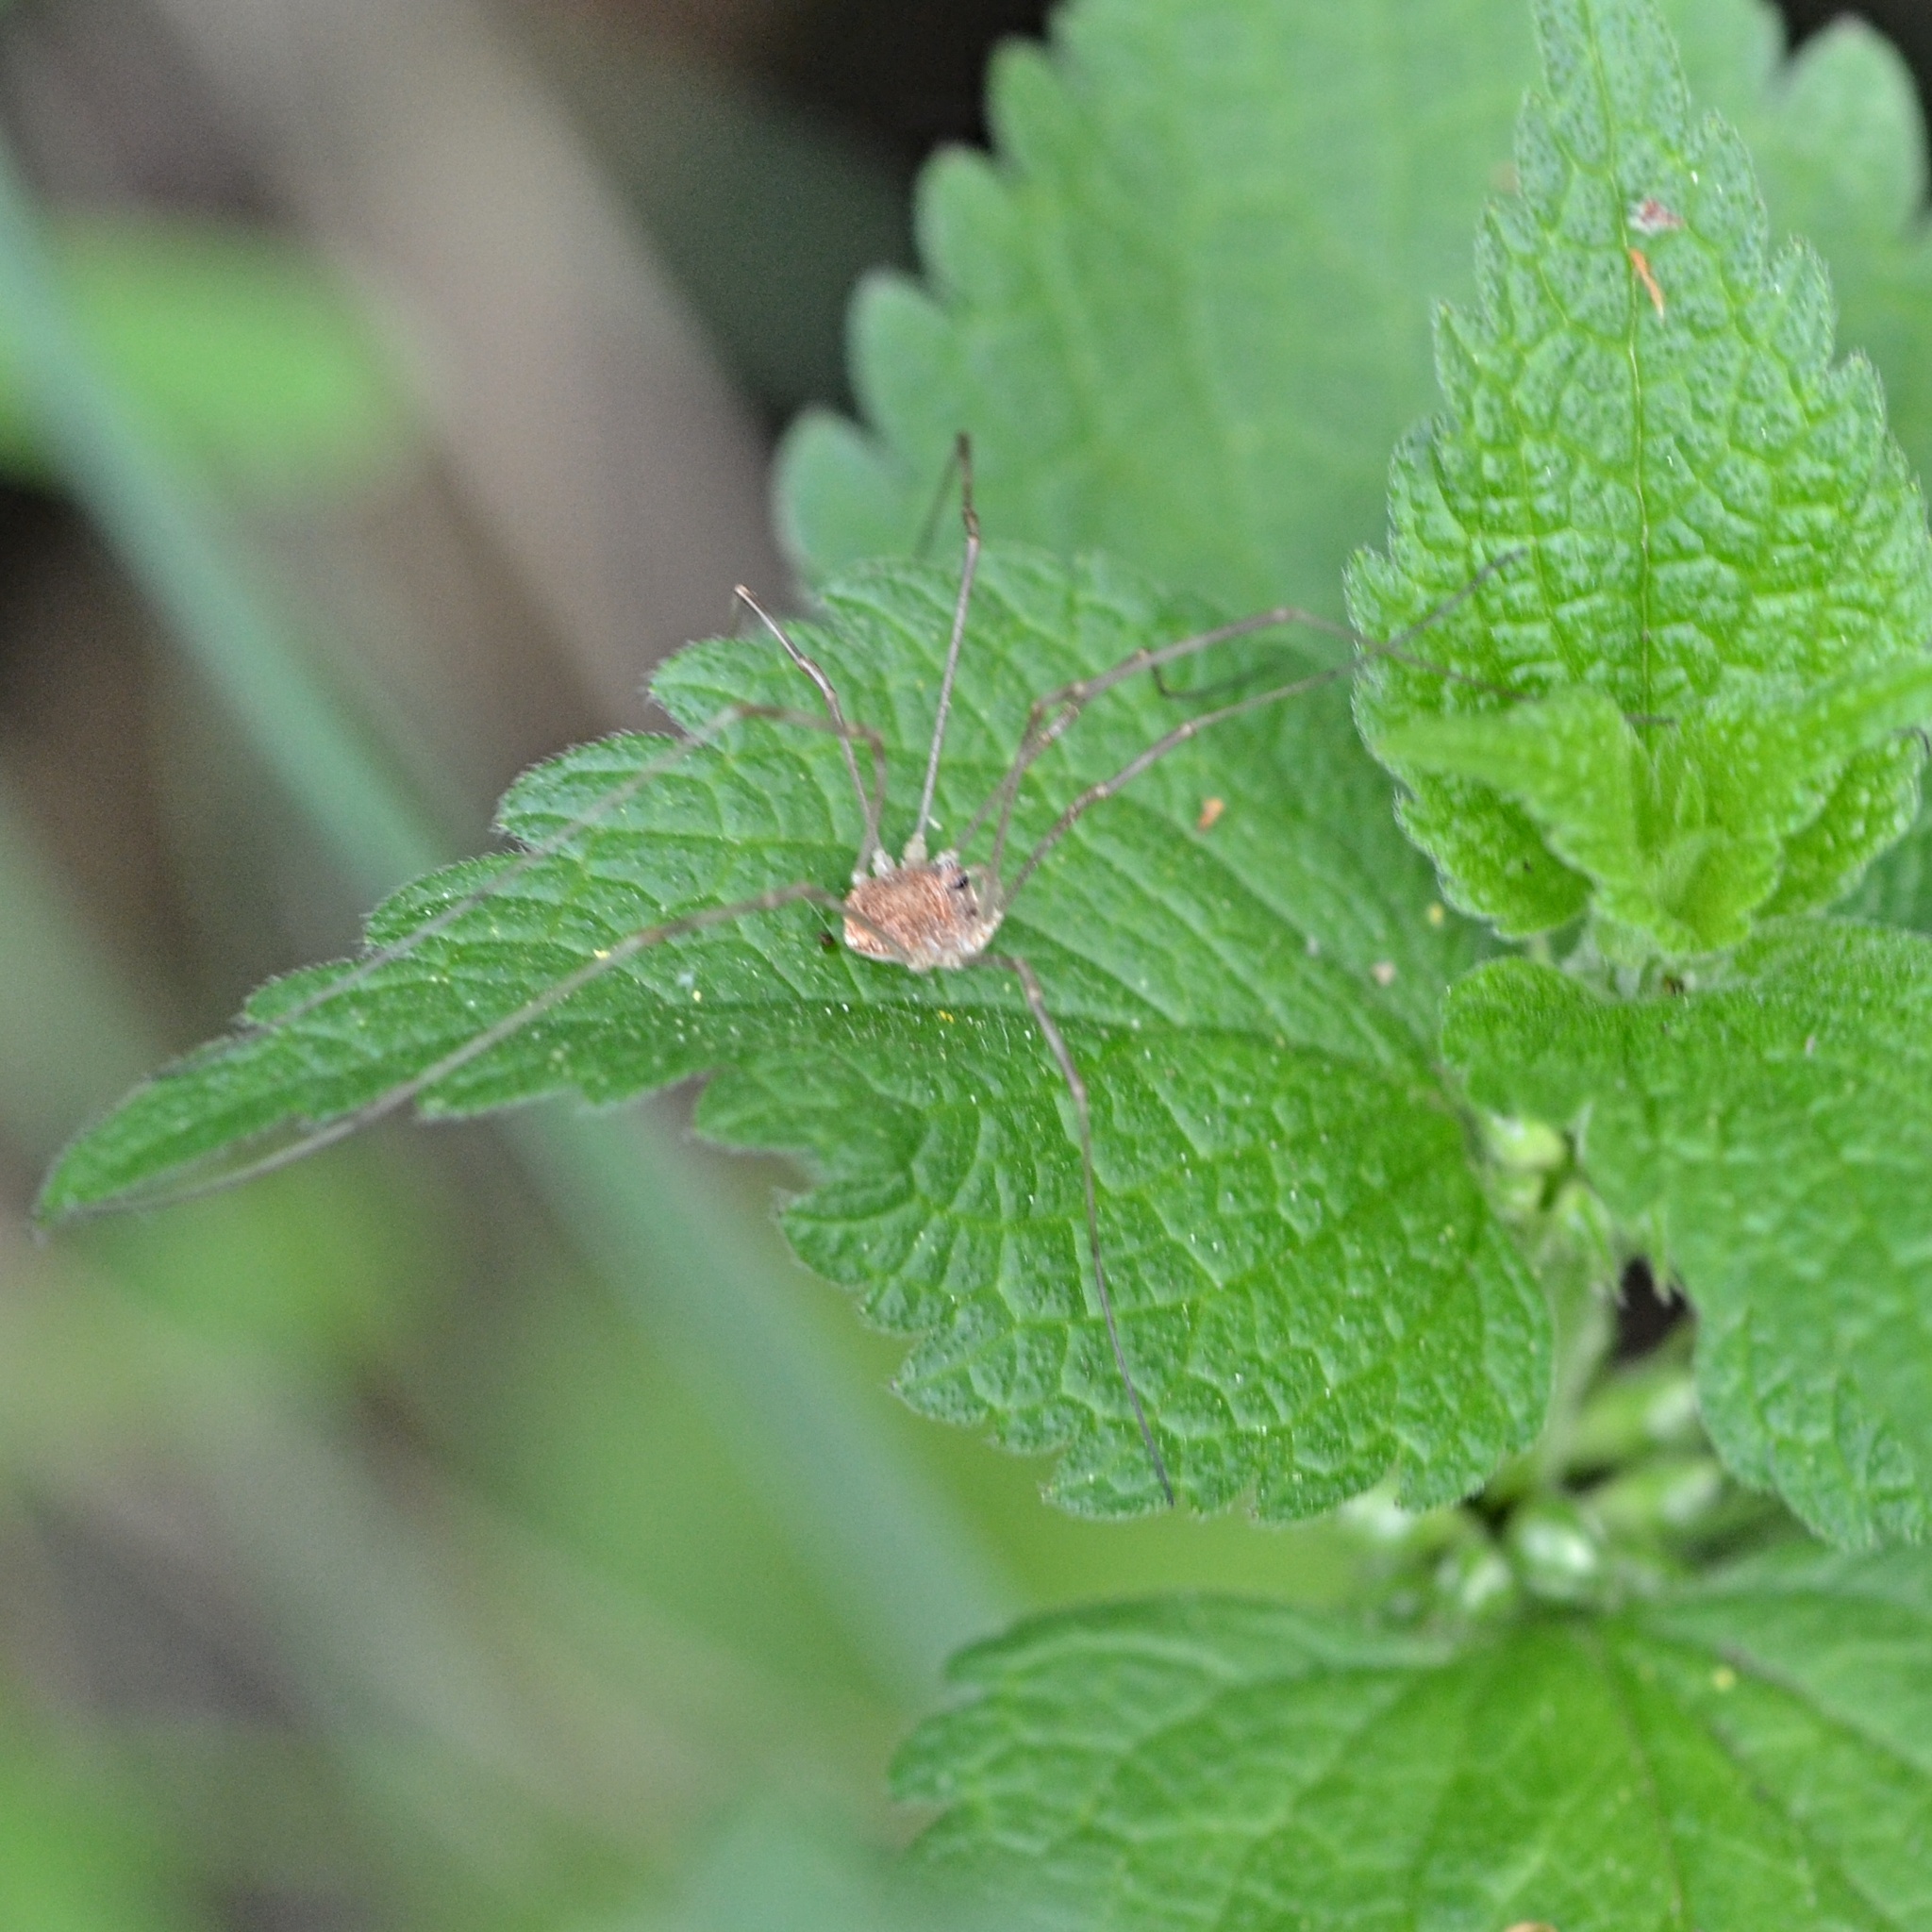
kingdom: Animalia
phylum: Arthropoda
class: Arachnida
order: Opiliones
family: Phalangiidae
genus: Rilaena
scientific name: Rilaena triangularis
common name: Spring harvestman
